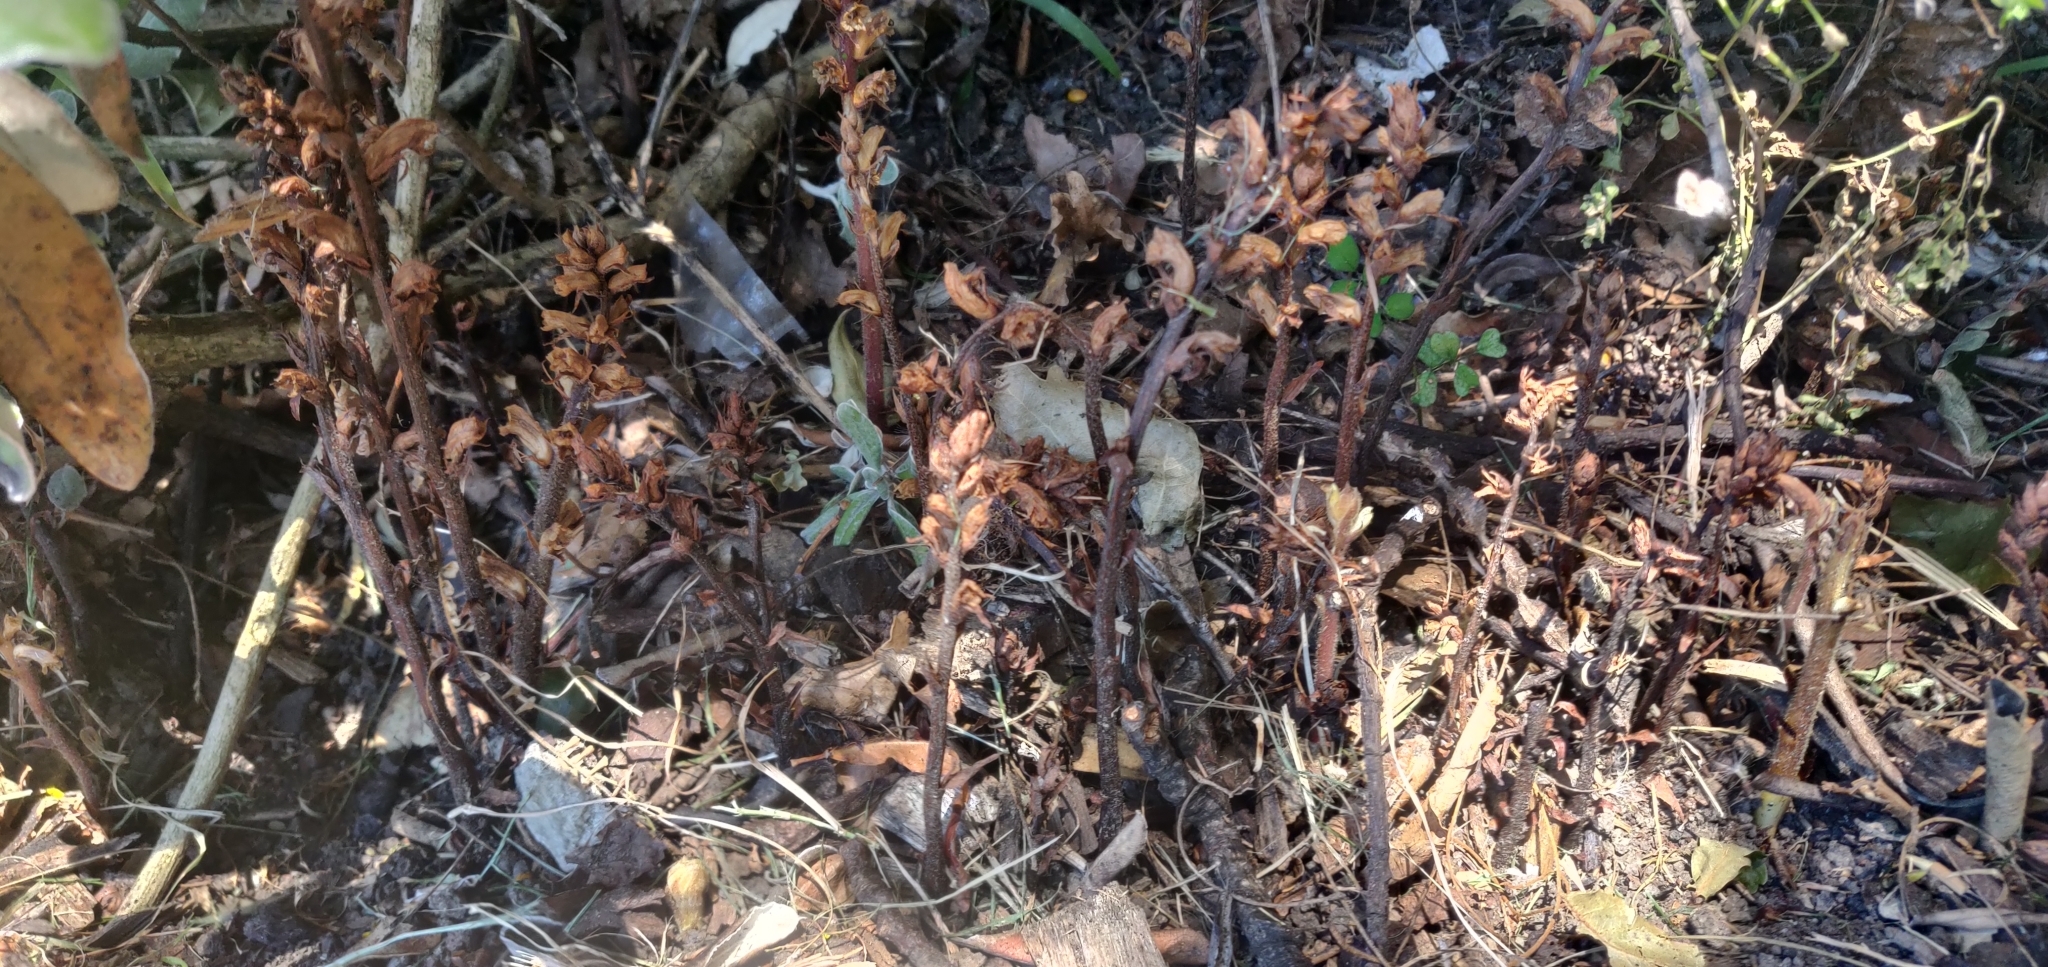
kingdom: Plantae
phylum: Tracheophyta
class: Magnoliopsida
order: Lamiales
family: Orobanchaceae
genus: Orobanche
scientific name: Orobanche minor
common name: Common broomrape
